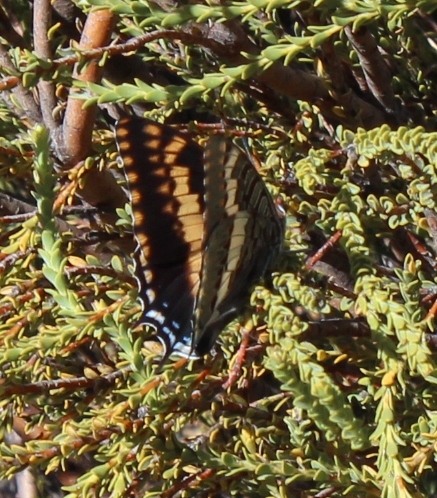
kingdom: Animalia
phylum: Arthropoda
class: Insecta
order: Lepidoptera
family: Nymphalidae
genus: Charaxes
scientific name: Charaxes pelias
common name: Protea charaxes
